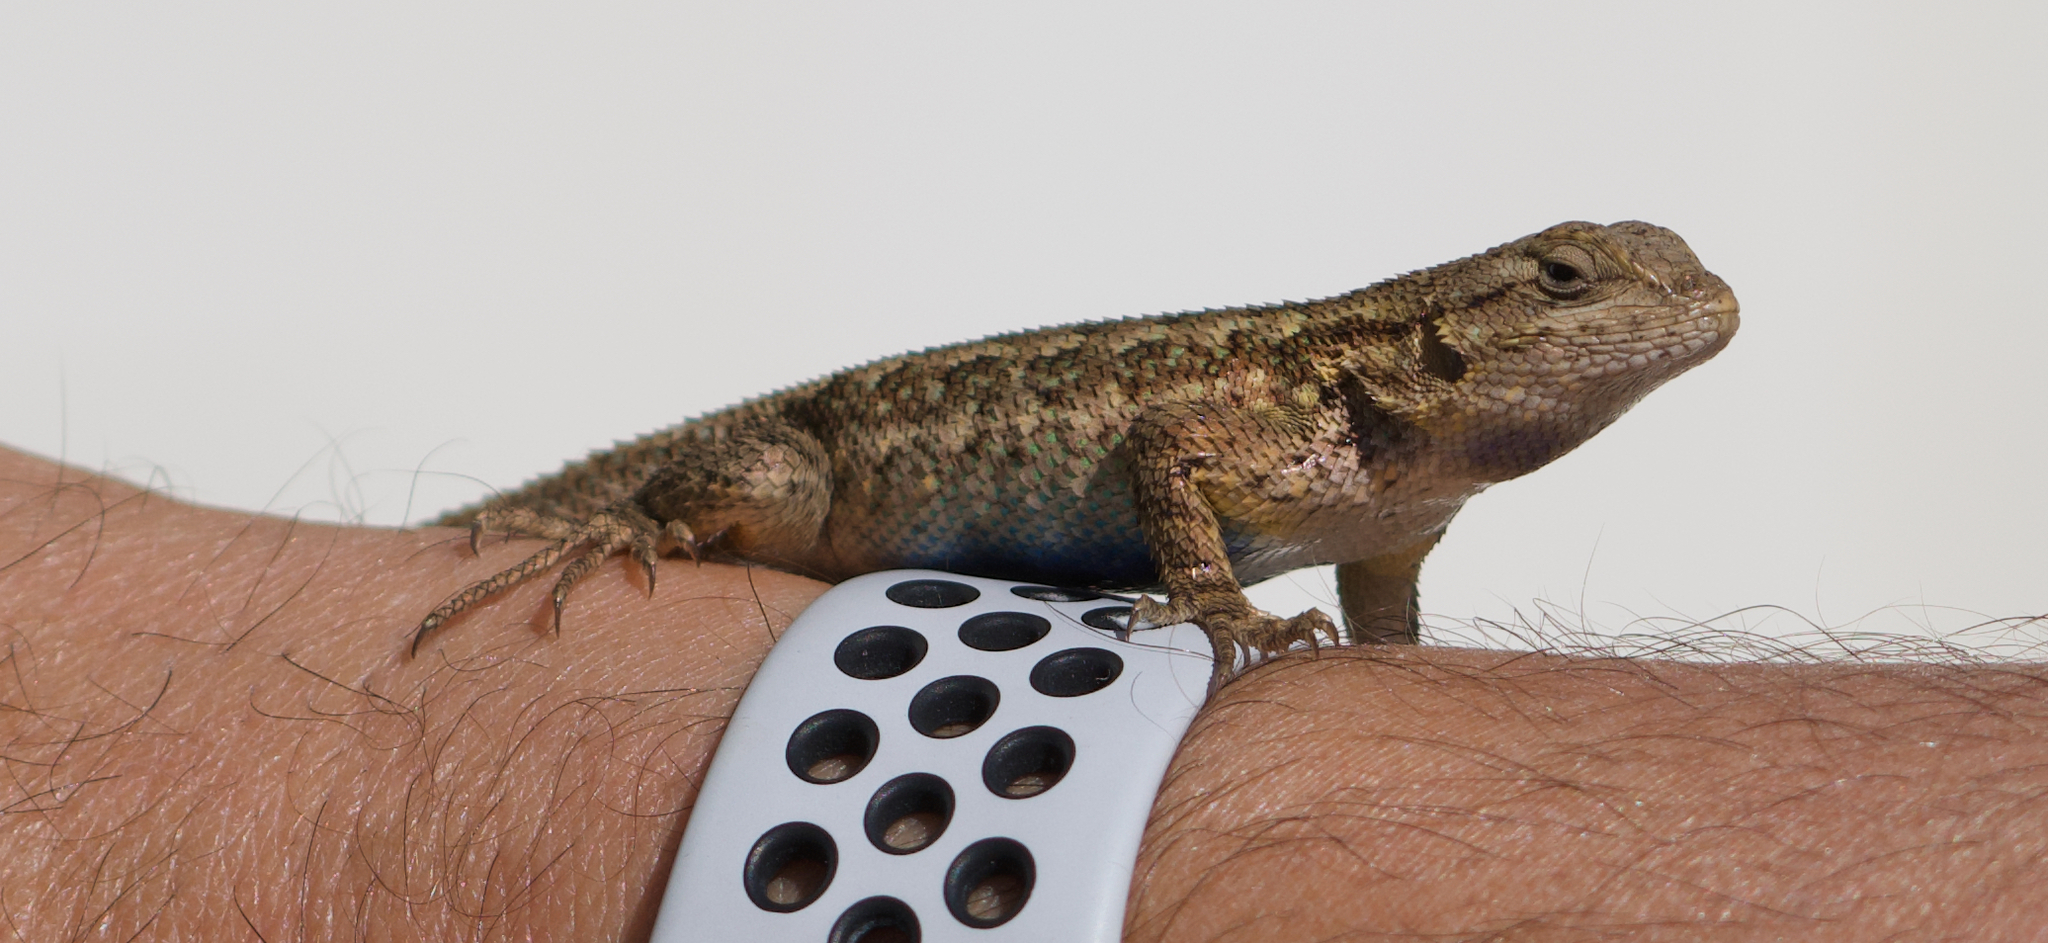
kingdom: Animalia
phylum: Chordata
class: Squamata
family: Phrynosomatidae
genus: Sceloporus
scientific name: Sceloporus occidentalis
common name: Western fence lizard
